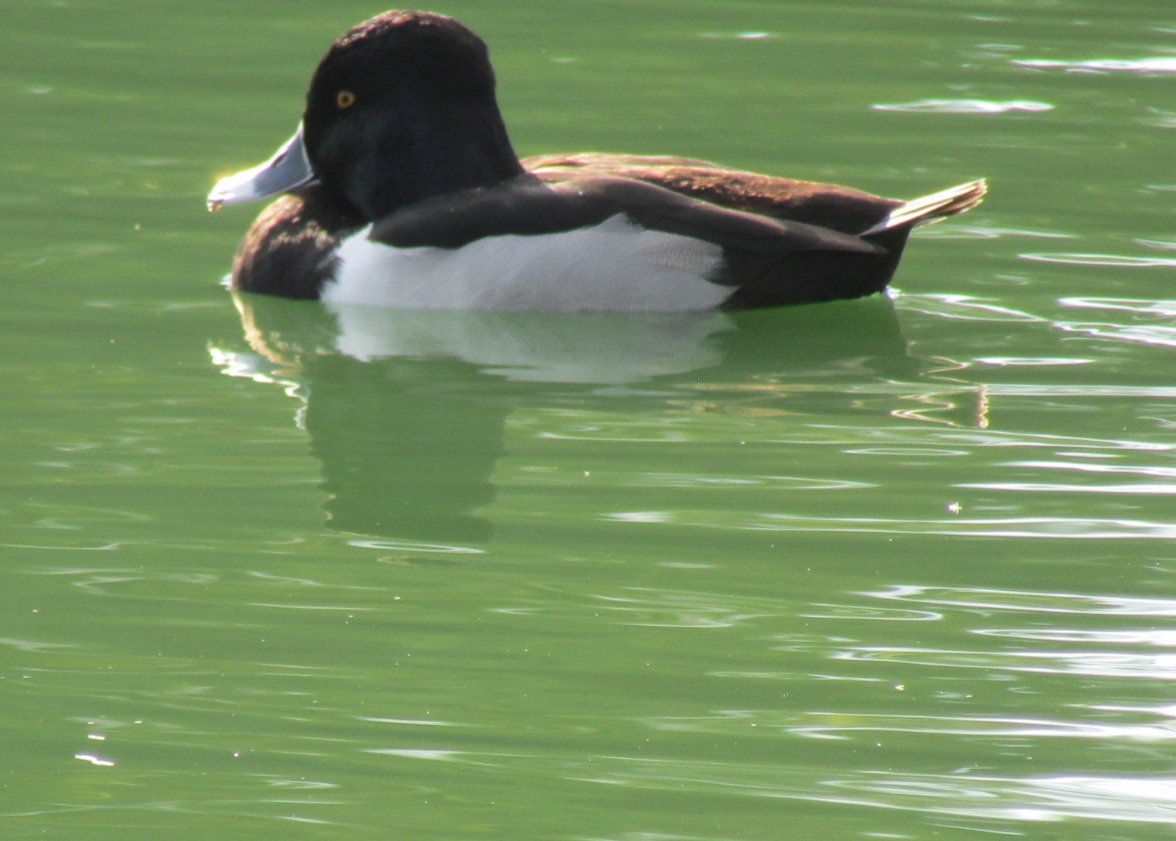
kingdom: Animalia
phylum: Chordata
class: Aves
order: Anseriformes
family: Anatidae
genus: Aythya
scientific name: Aythya collaris
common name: Ring-necked duck
